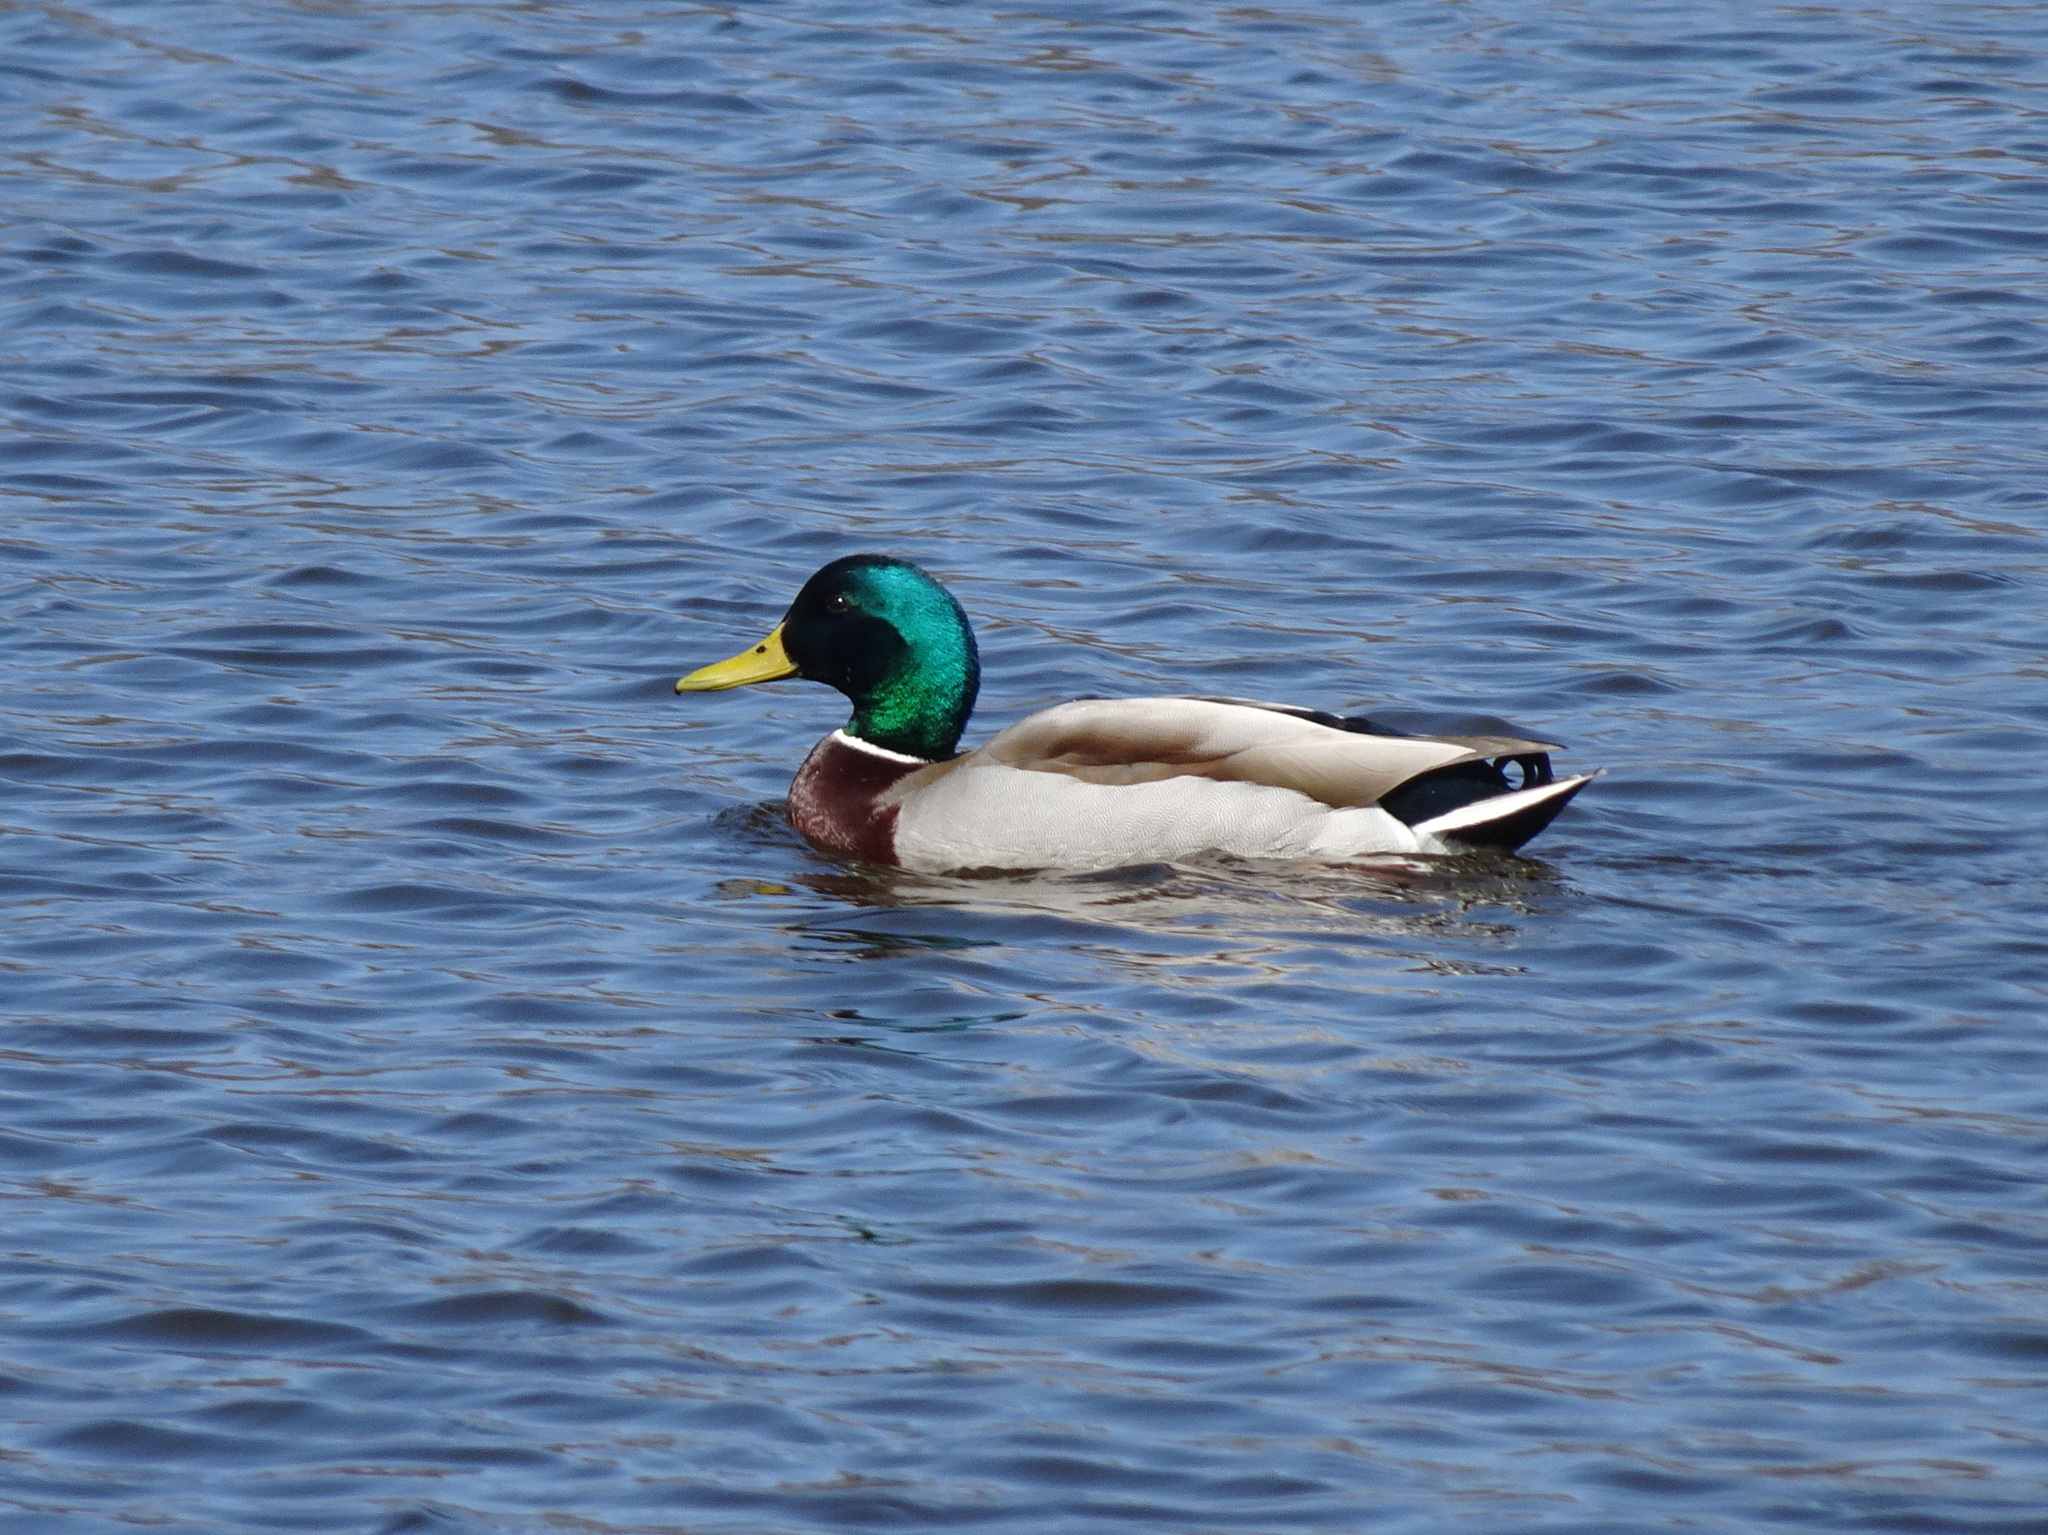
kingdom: Animalia
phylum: Chordata
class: Aves
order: Anseriformes
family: Anatidae
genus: Anas
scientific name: Anas platyrhynchos
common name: Mallard
